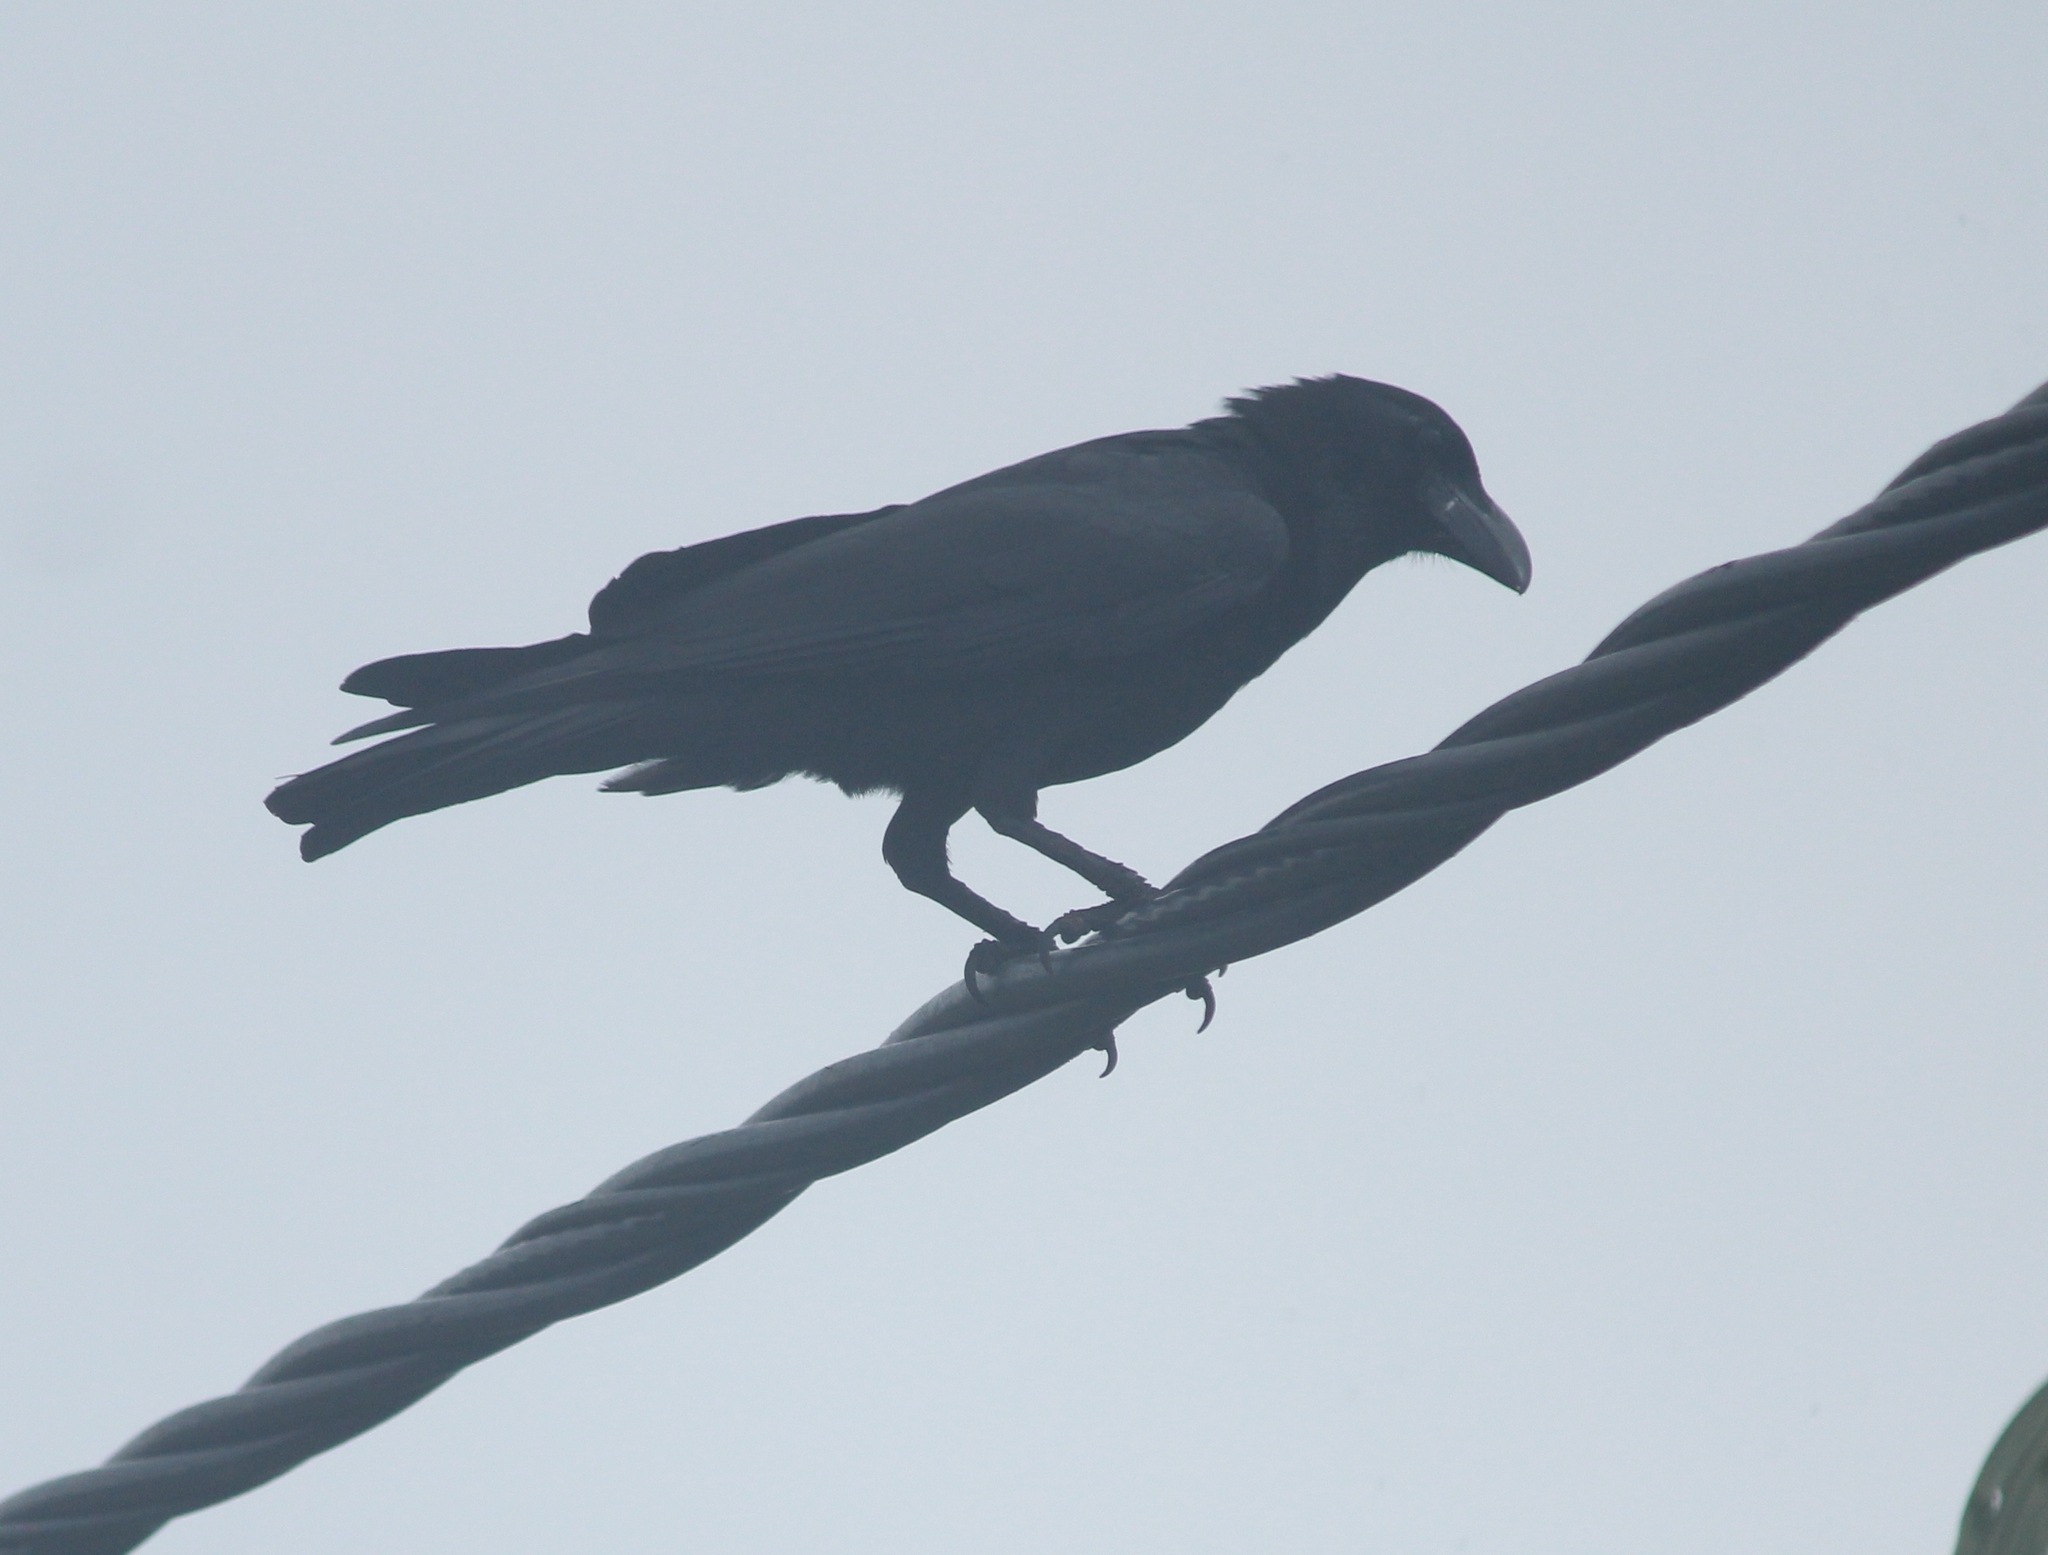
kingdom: Animalia
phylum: Chordata
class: Aves
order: Passeriformes
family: Corvidae
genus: Corvus
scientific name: Corvus macrorhynchos
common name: Large-billed crow
